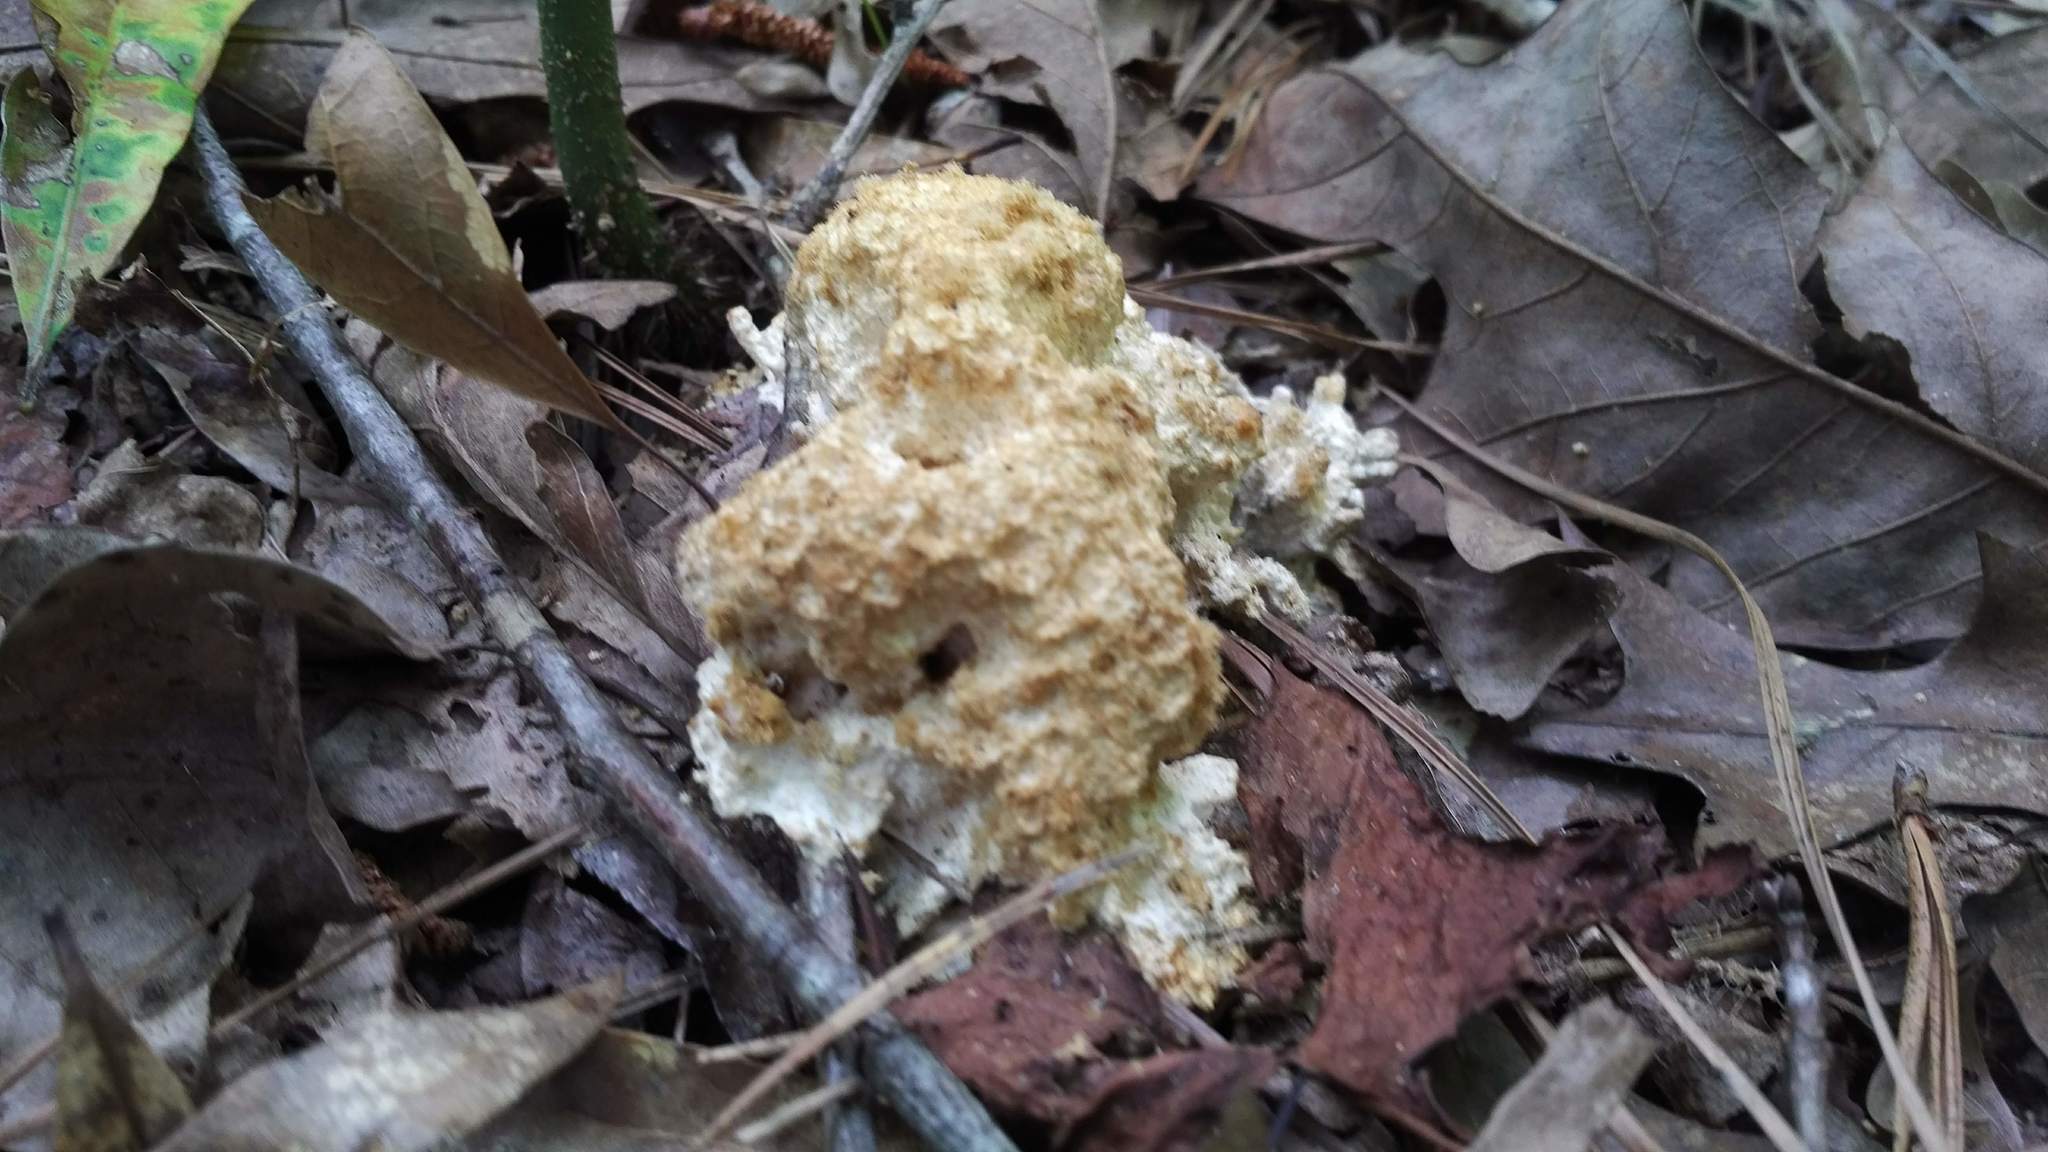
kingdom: Protozoa
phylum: Mycetozoa
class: Myxomycetes
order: Physarales
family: Physaraceae
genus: Fuligo
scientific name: Fuligo septica
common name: Dog vomit slime mold
